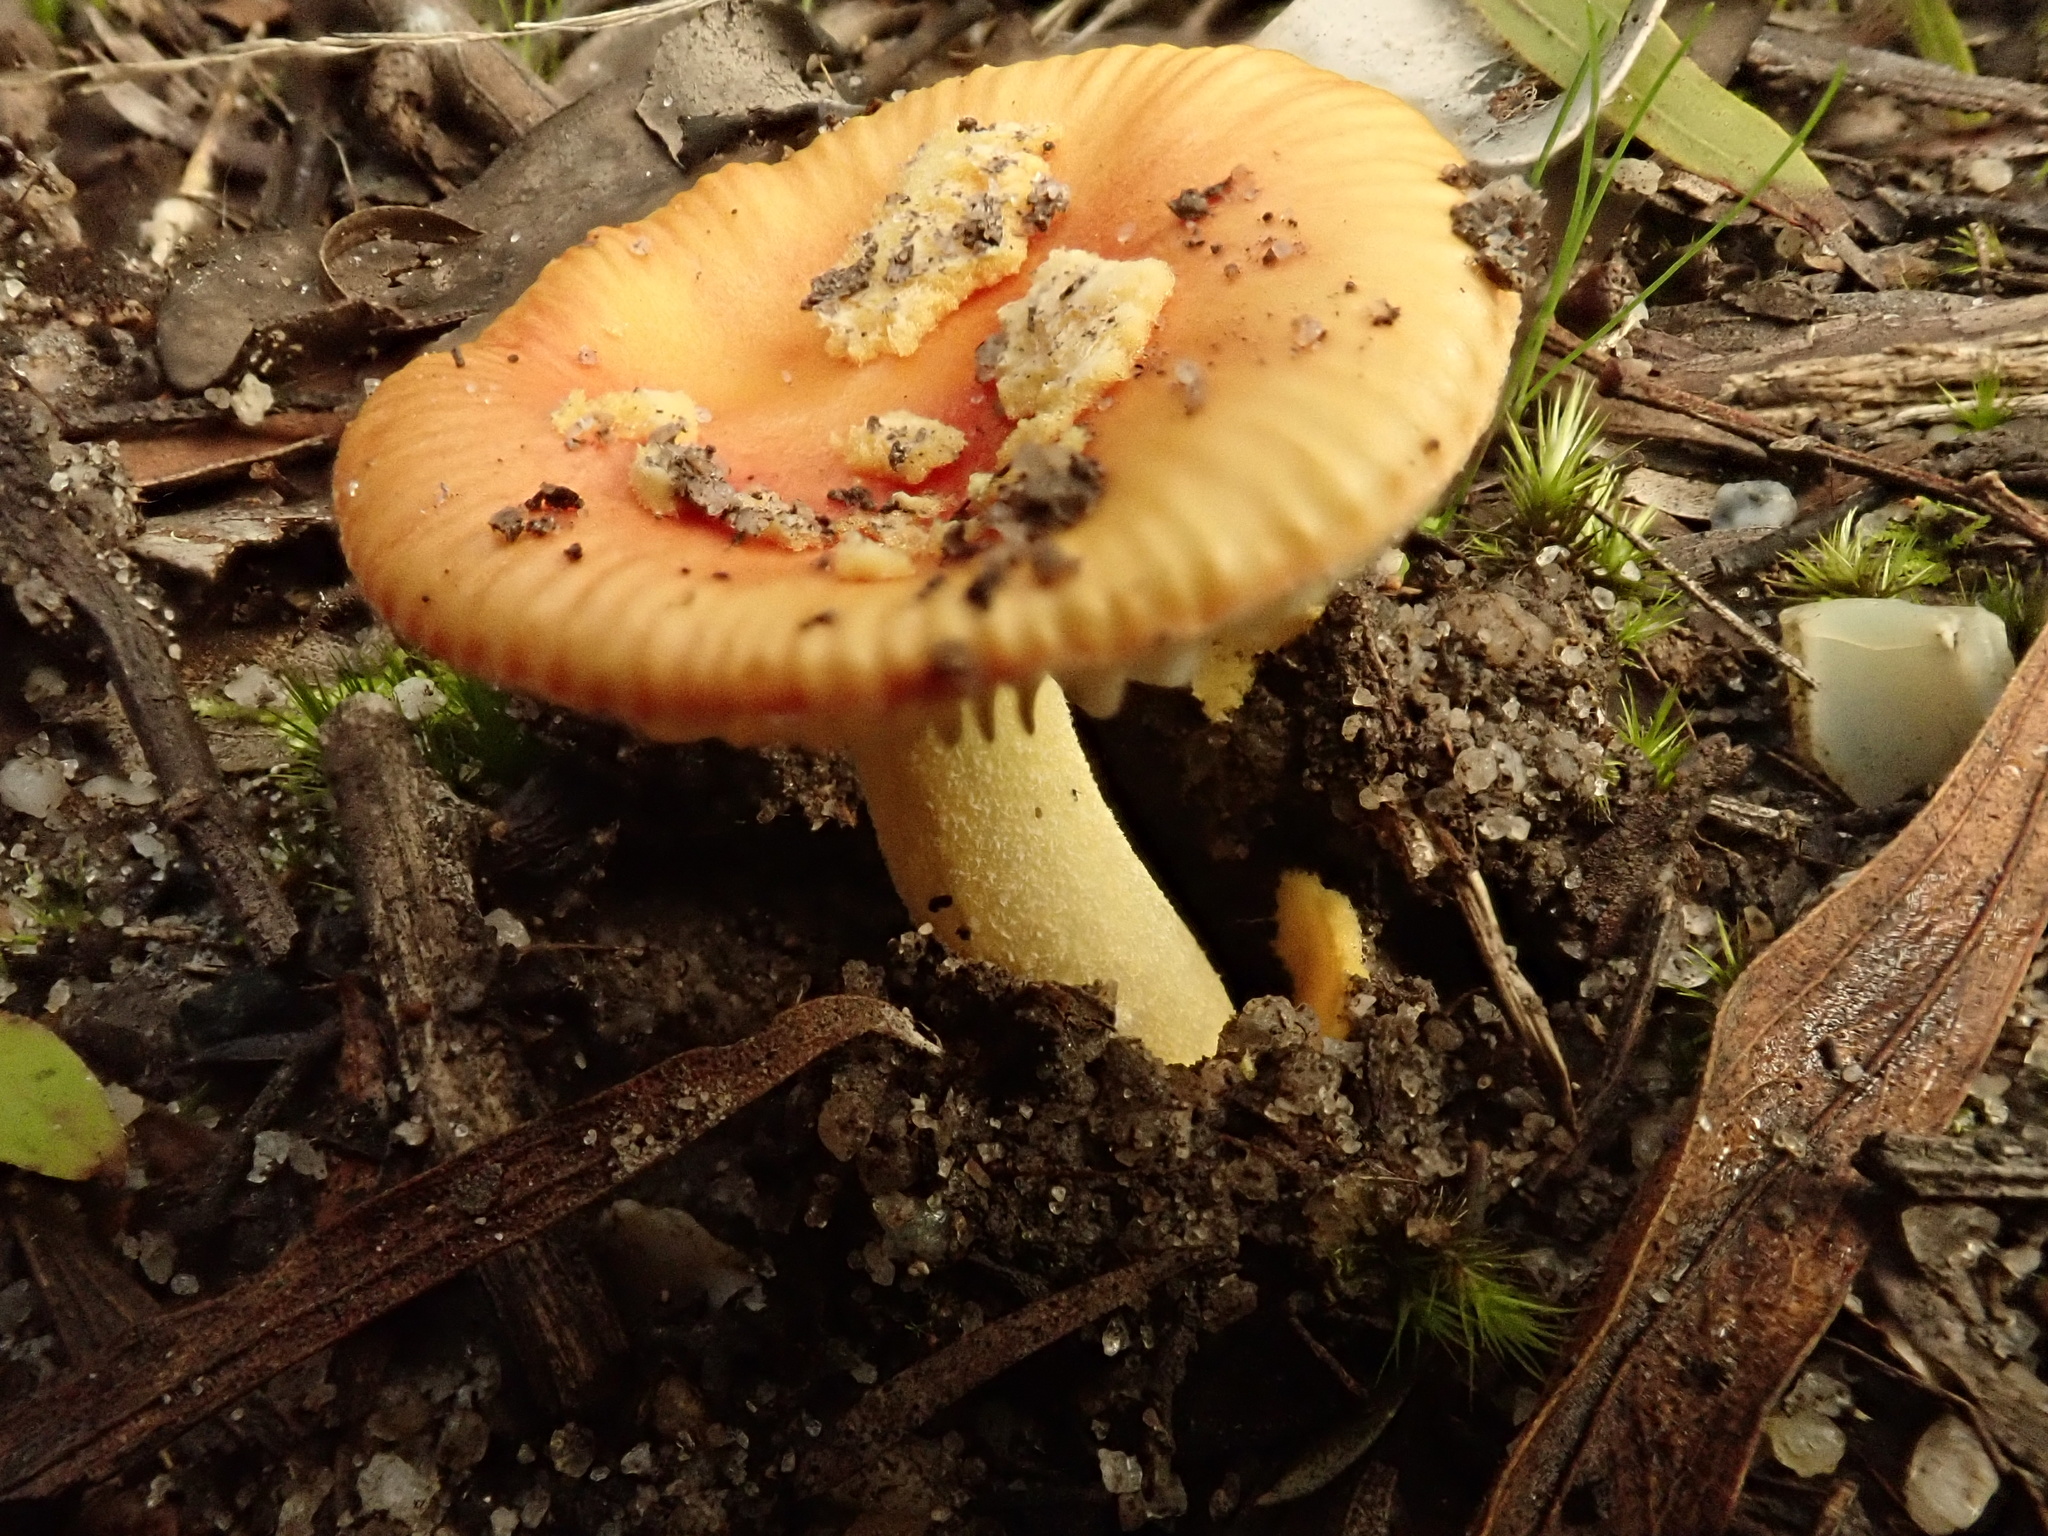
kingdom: Fungi
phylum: Basidiomycota
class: Agaricomycetes
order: Agaricales
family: Amanitaceae
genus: Amanita
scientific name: Amanita xanthocephala
